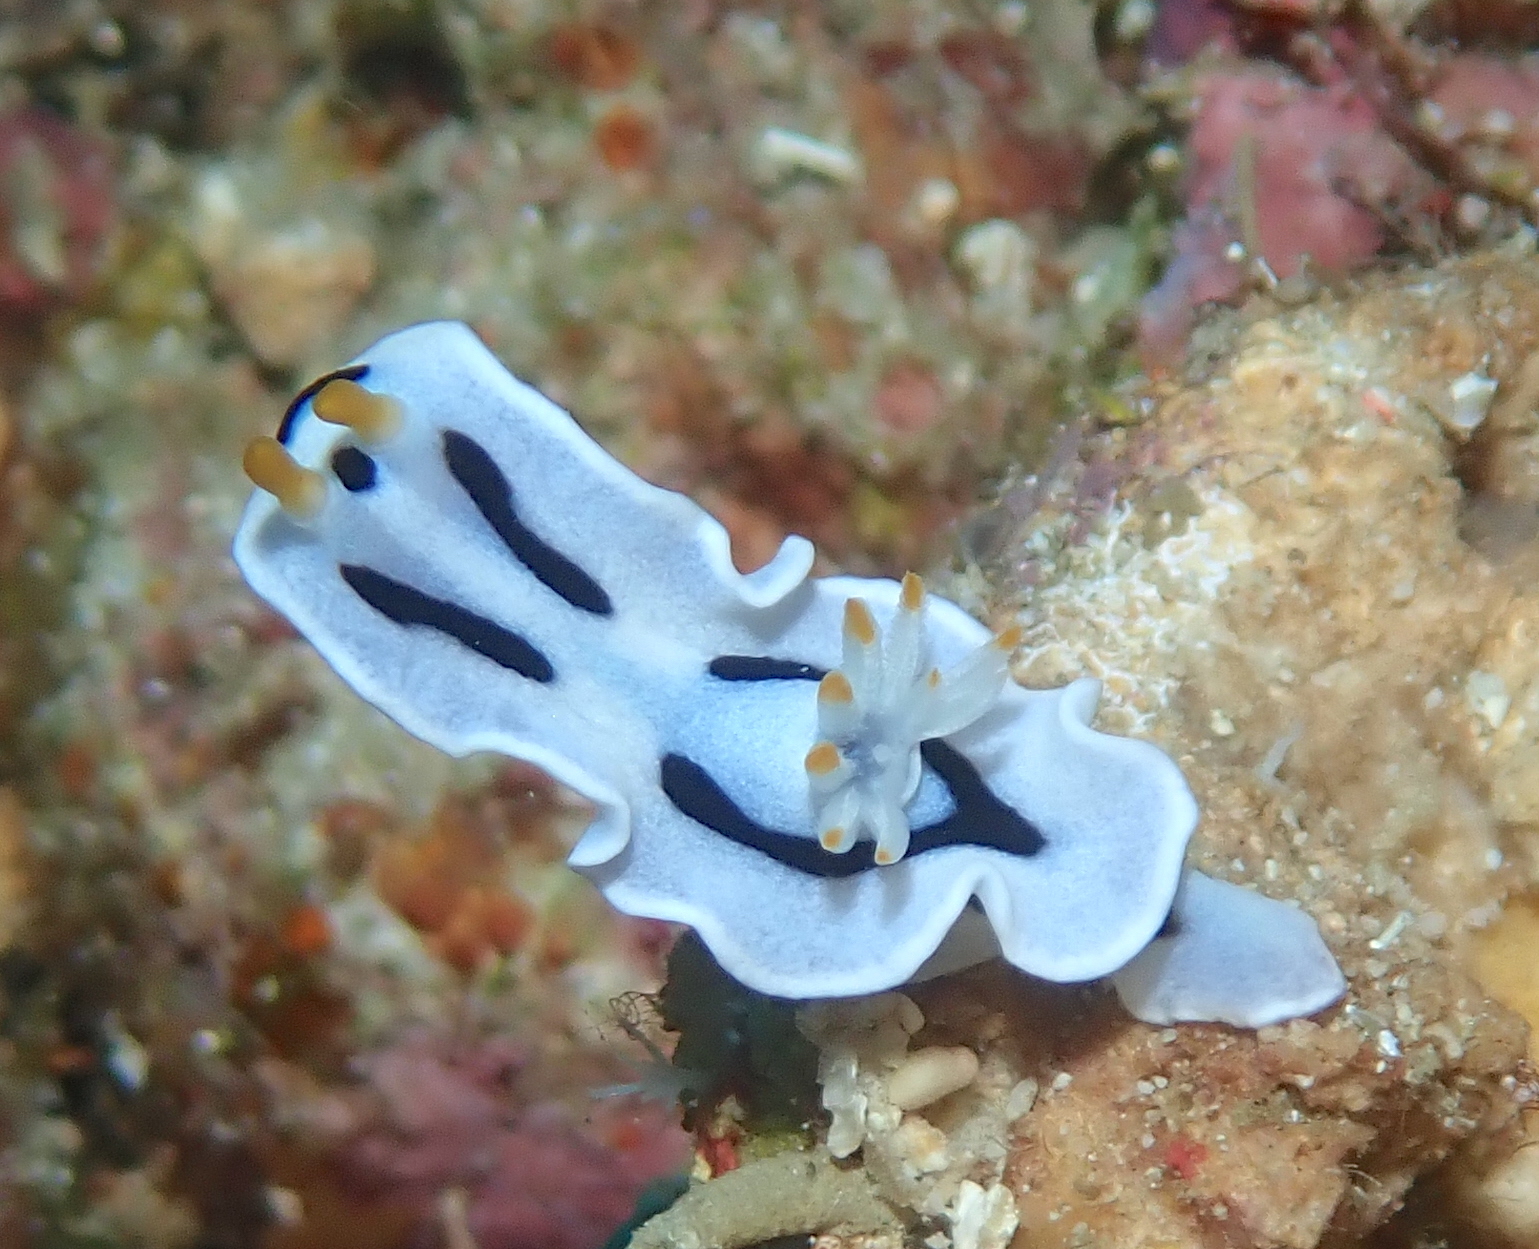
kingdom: Animalia
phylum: Mollusca
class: Gastropoda
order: Nudibranchia
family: Chromodorididae
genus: Chromodoris
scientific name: Chromodoris alcalai
